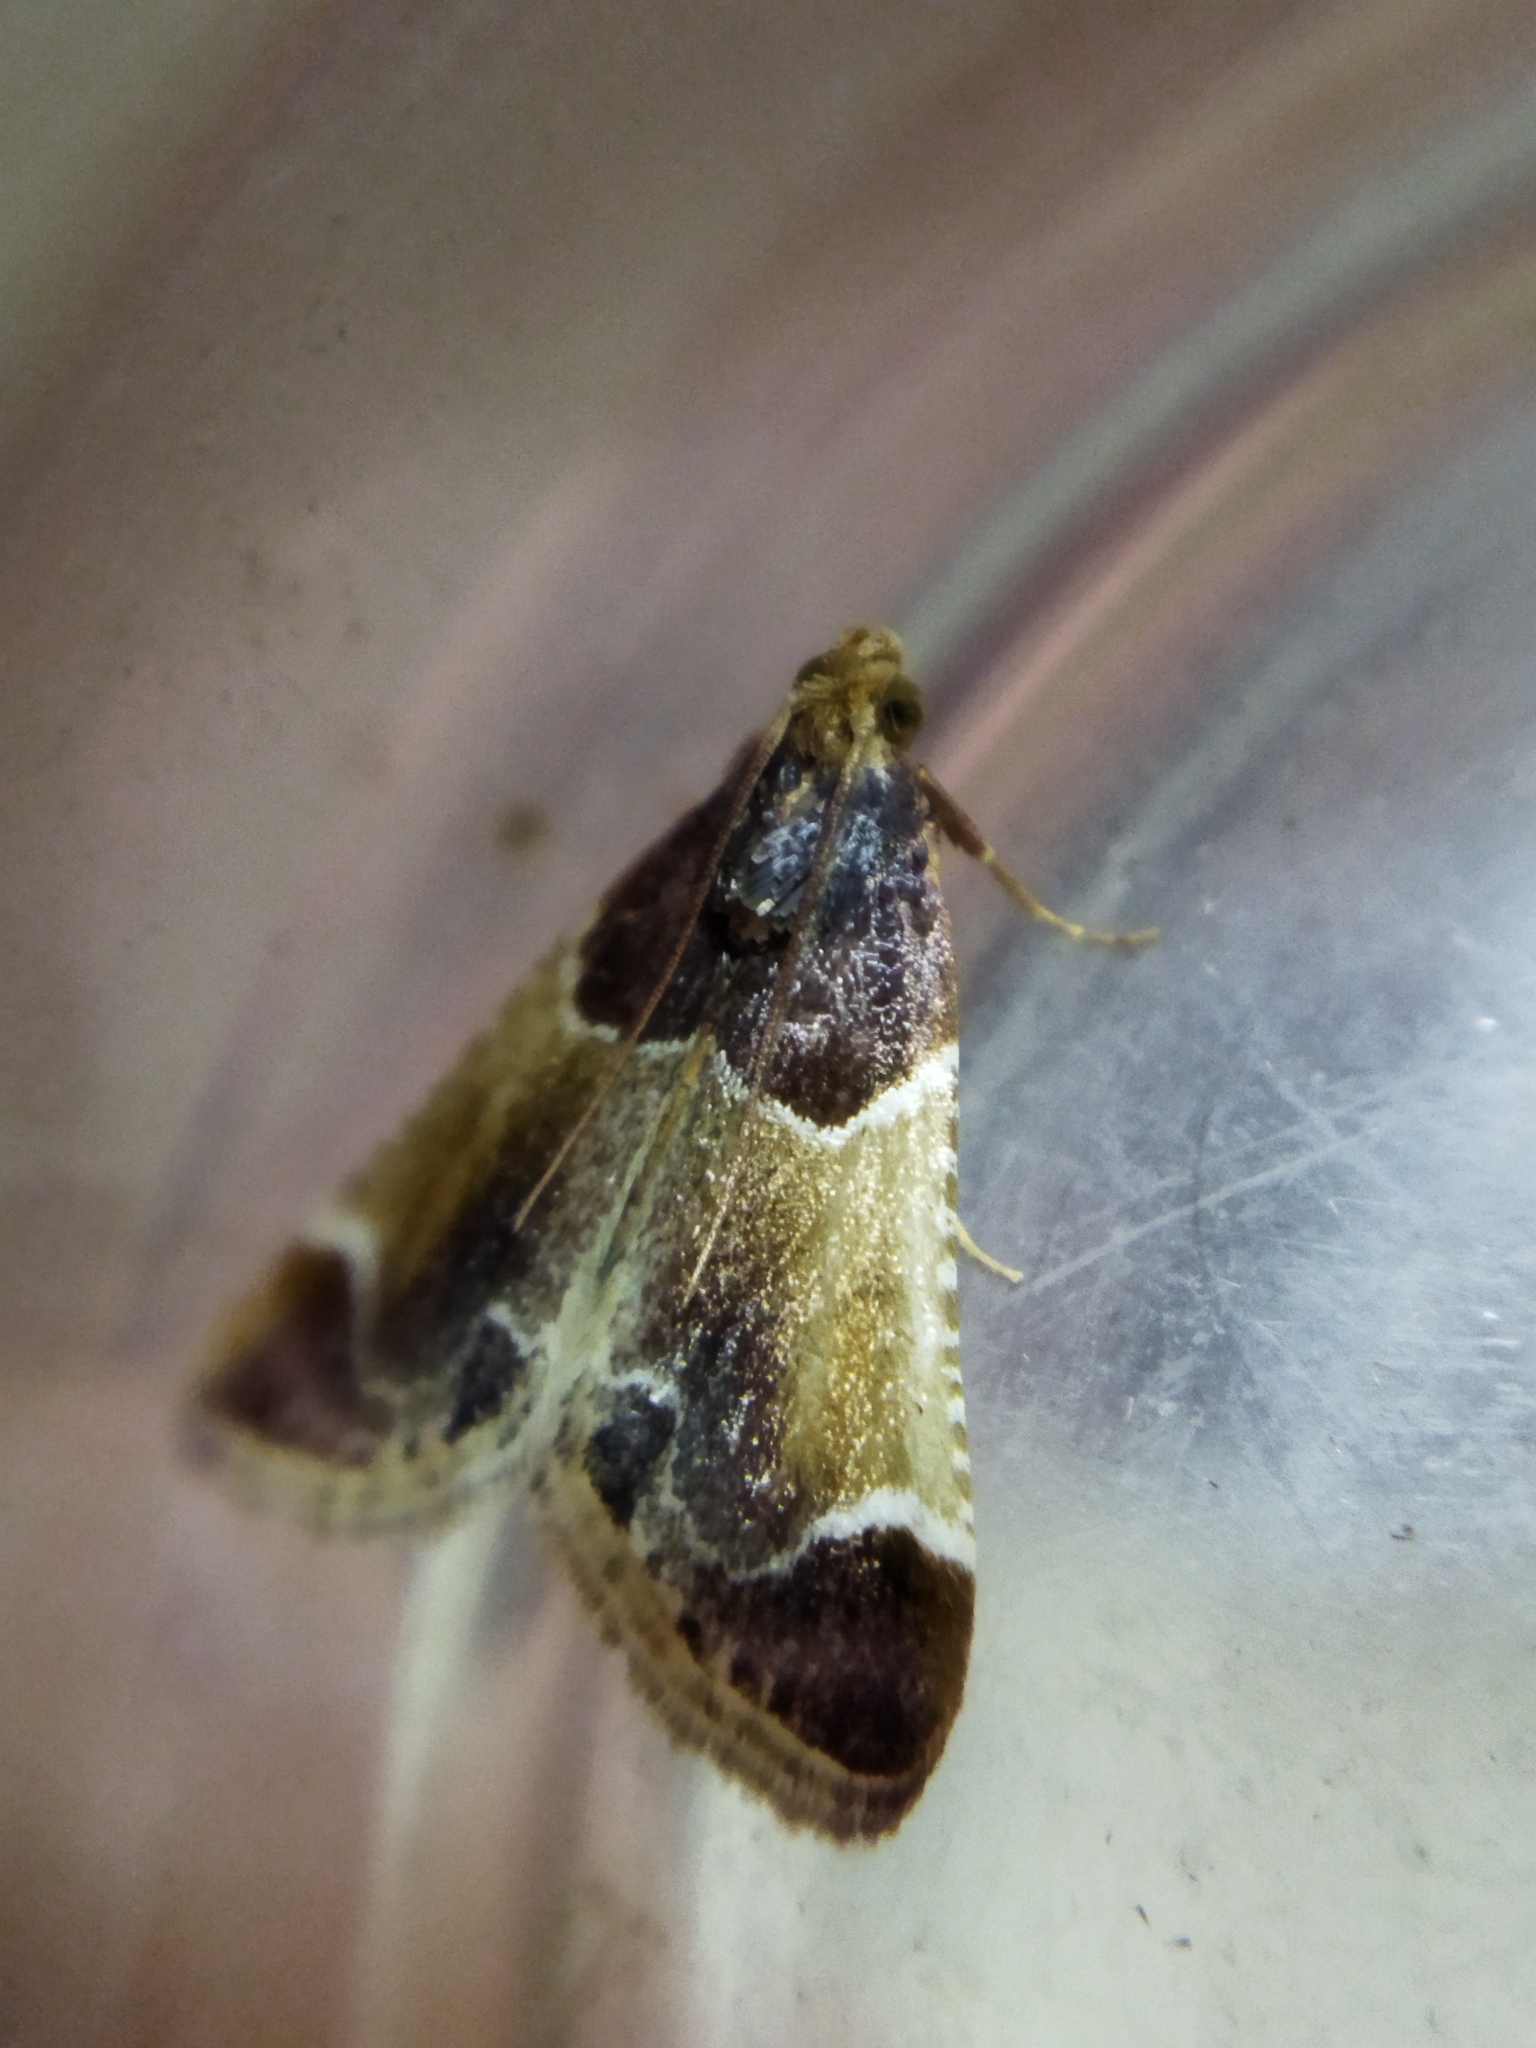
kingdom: Animalia
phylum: Arthropoda
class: Insecta
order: Lepidoptera
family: Pyralidae
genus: Pyralis
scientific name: Pyralis farinalis
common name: Meal moth
